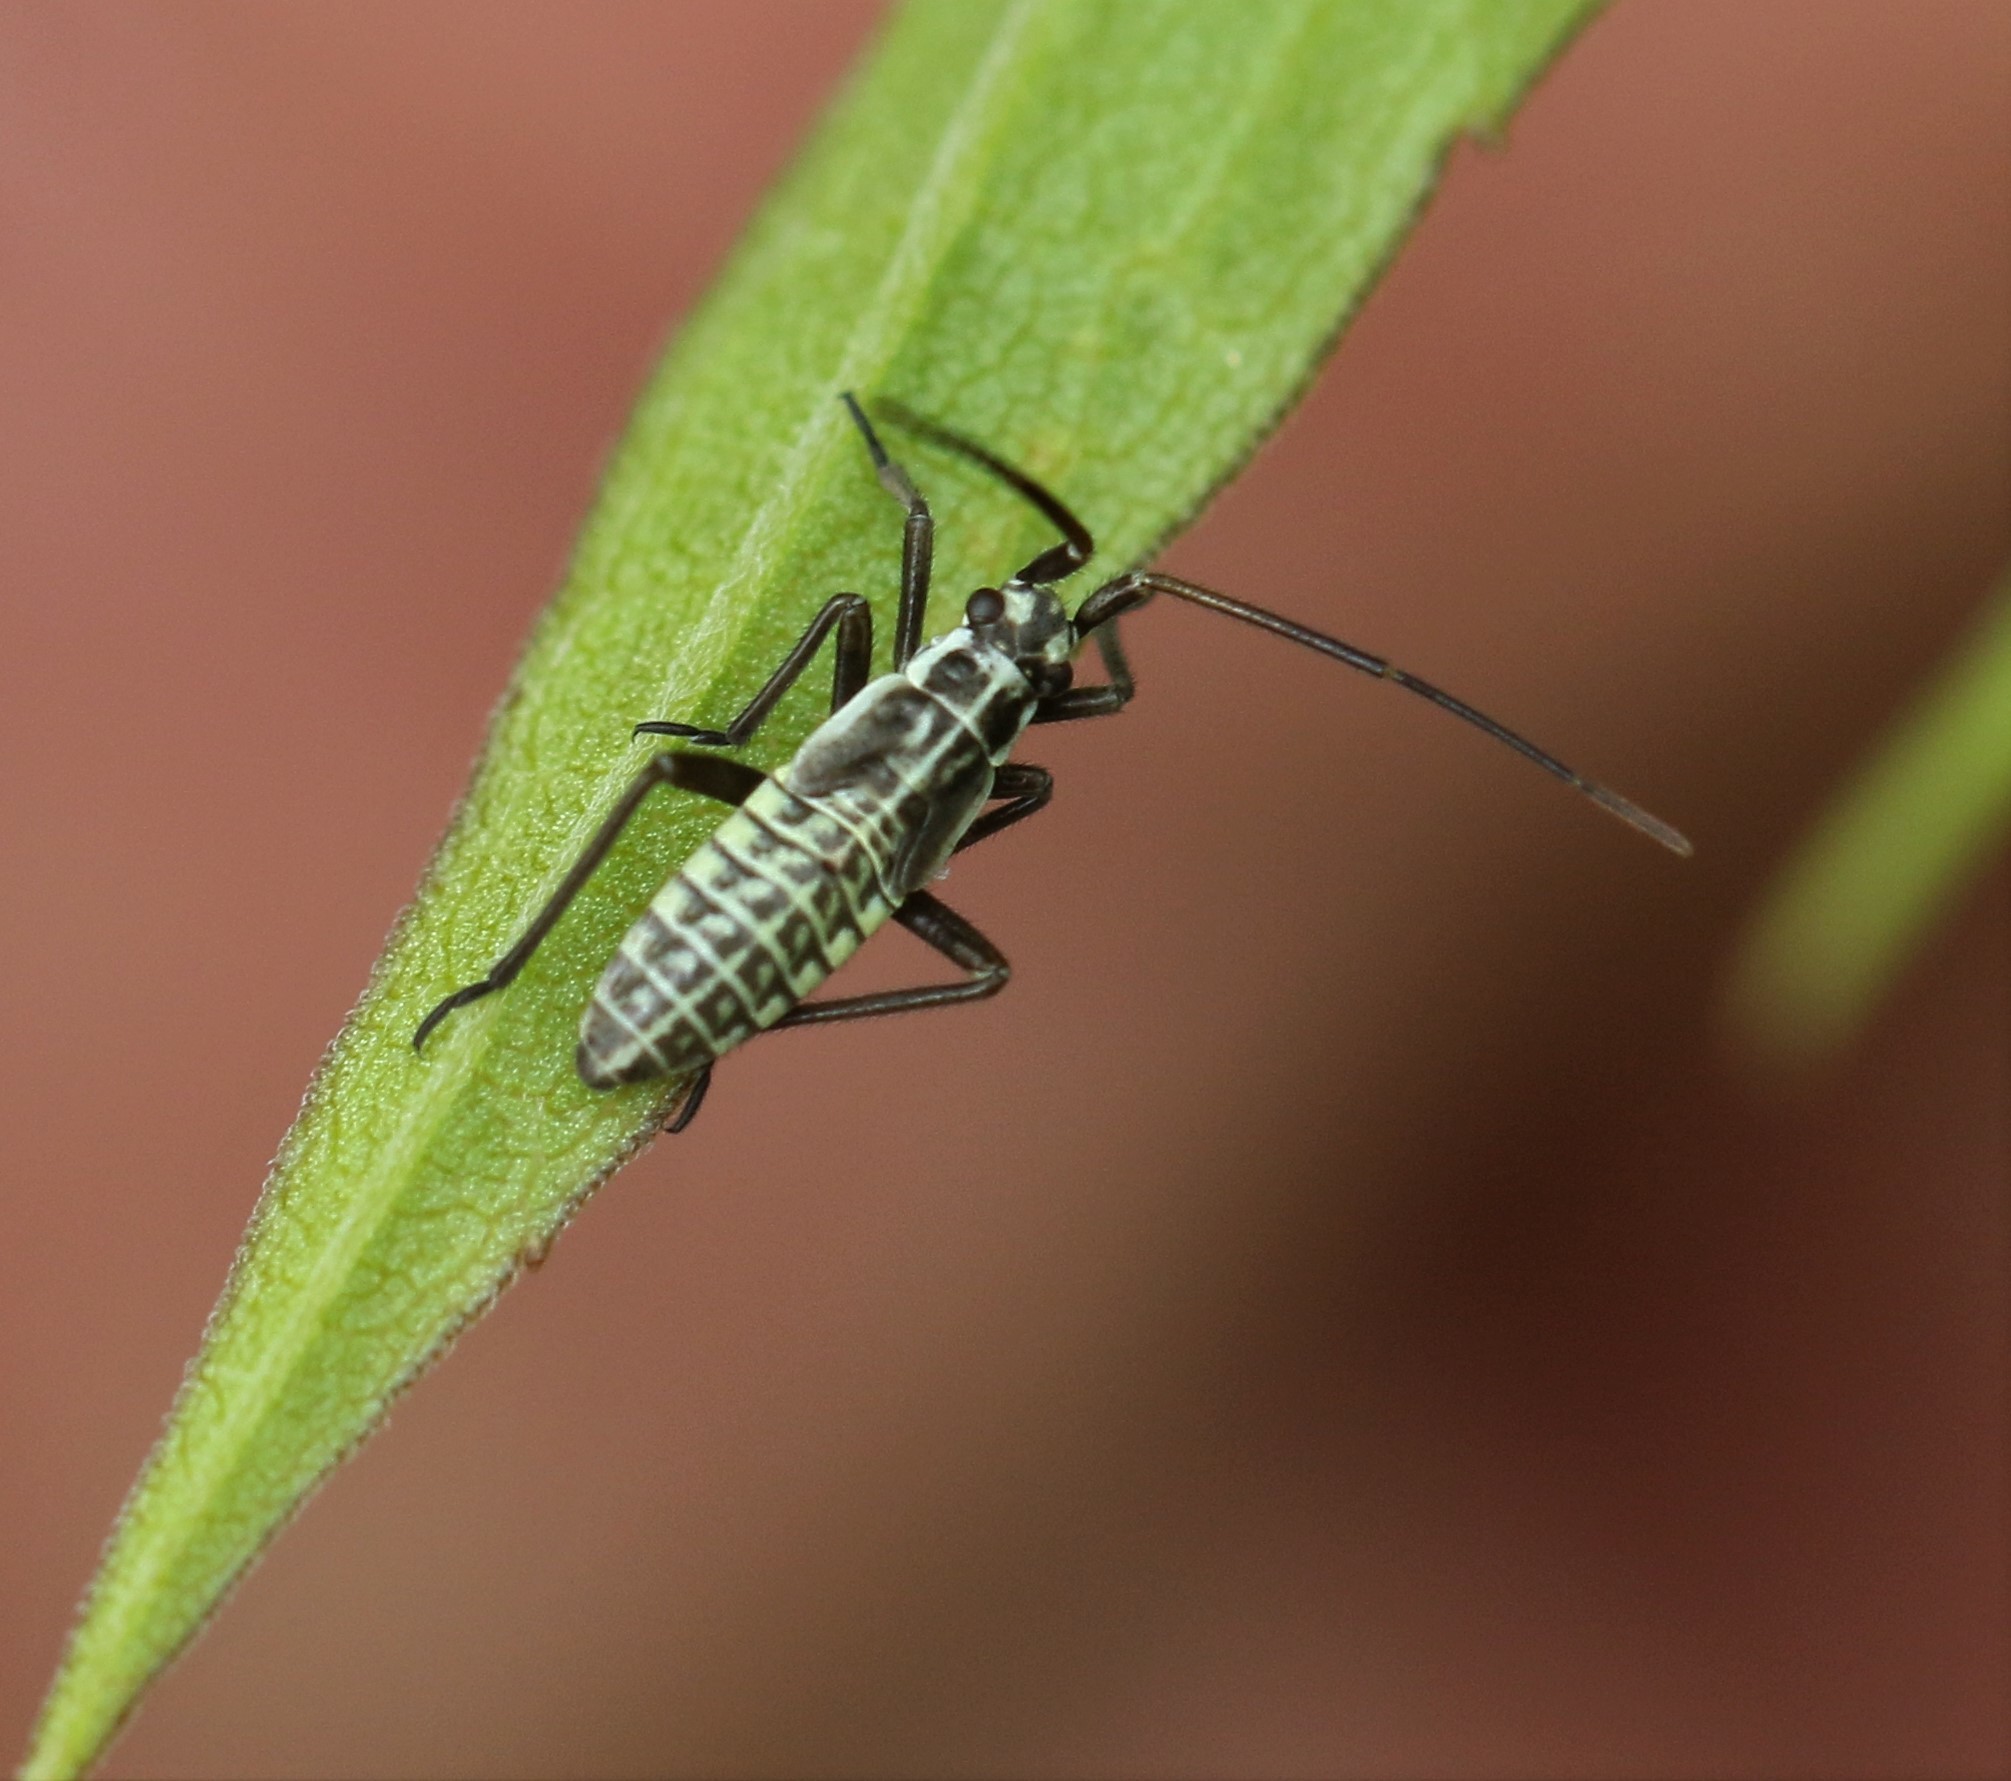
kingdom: Animalia
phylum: Arthropoda
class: Insecta
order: Hemiptera
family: Miridae
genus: Leptopterna
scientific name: Leptopterna dolabrata
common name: Meadow plant bug
